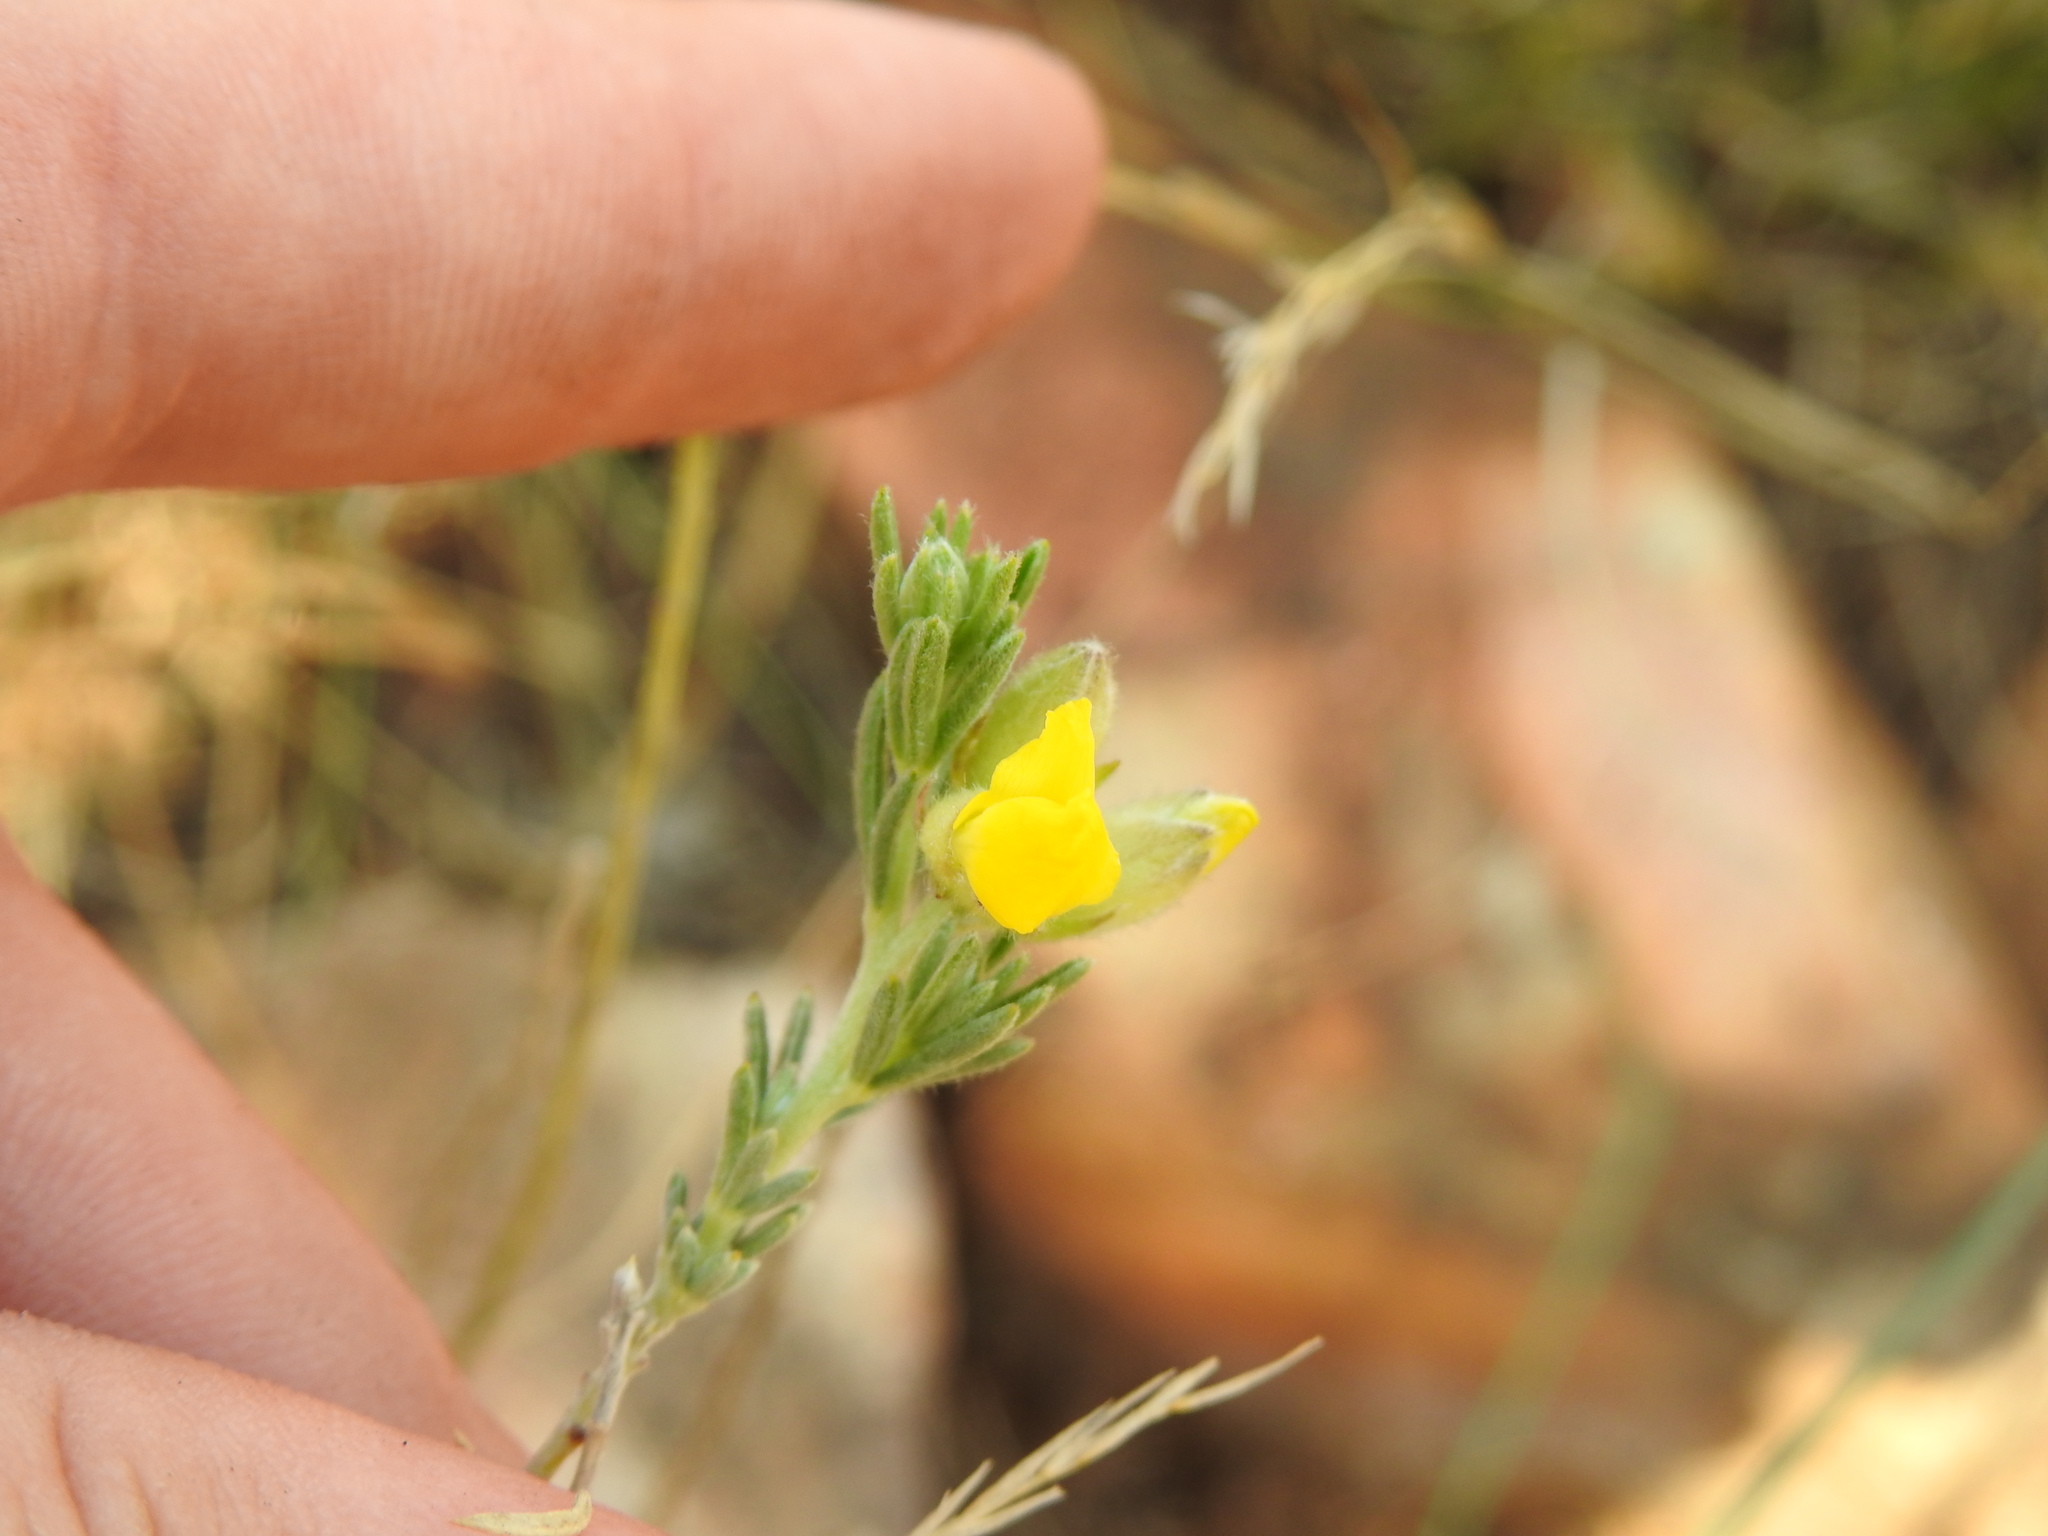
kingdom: Plantae
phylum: Tracheophyta
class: Magnoliopsida
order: Fabales
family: Fabaceae
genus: Pearsonia
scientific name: Pearsonia sessilifolia
